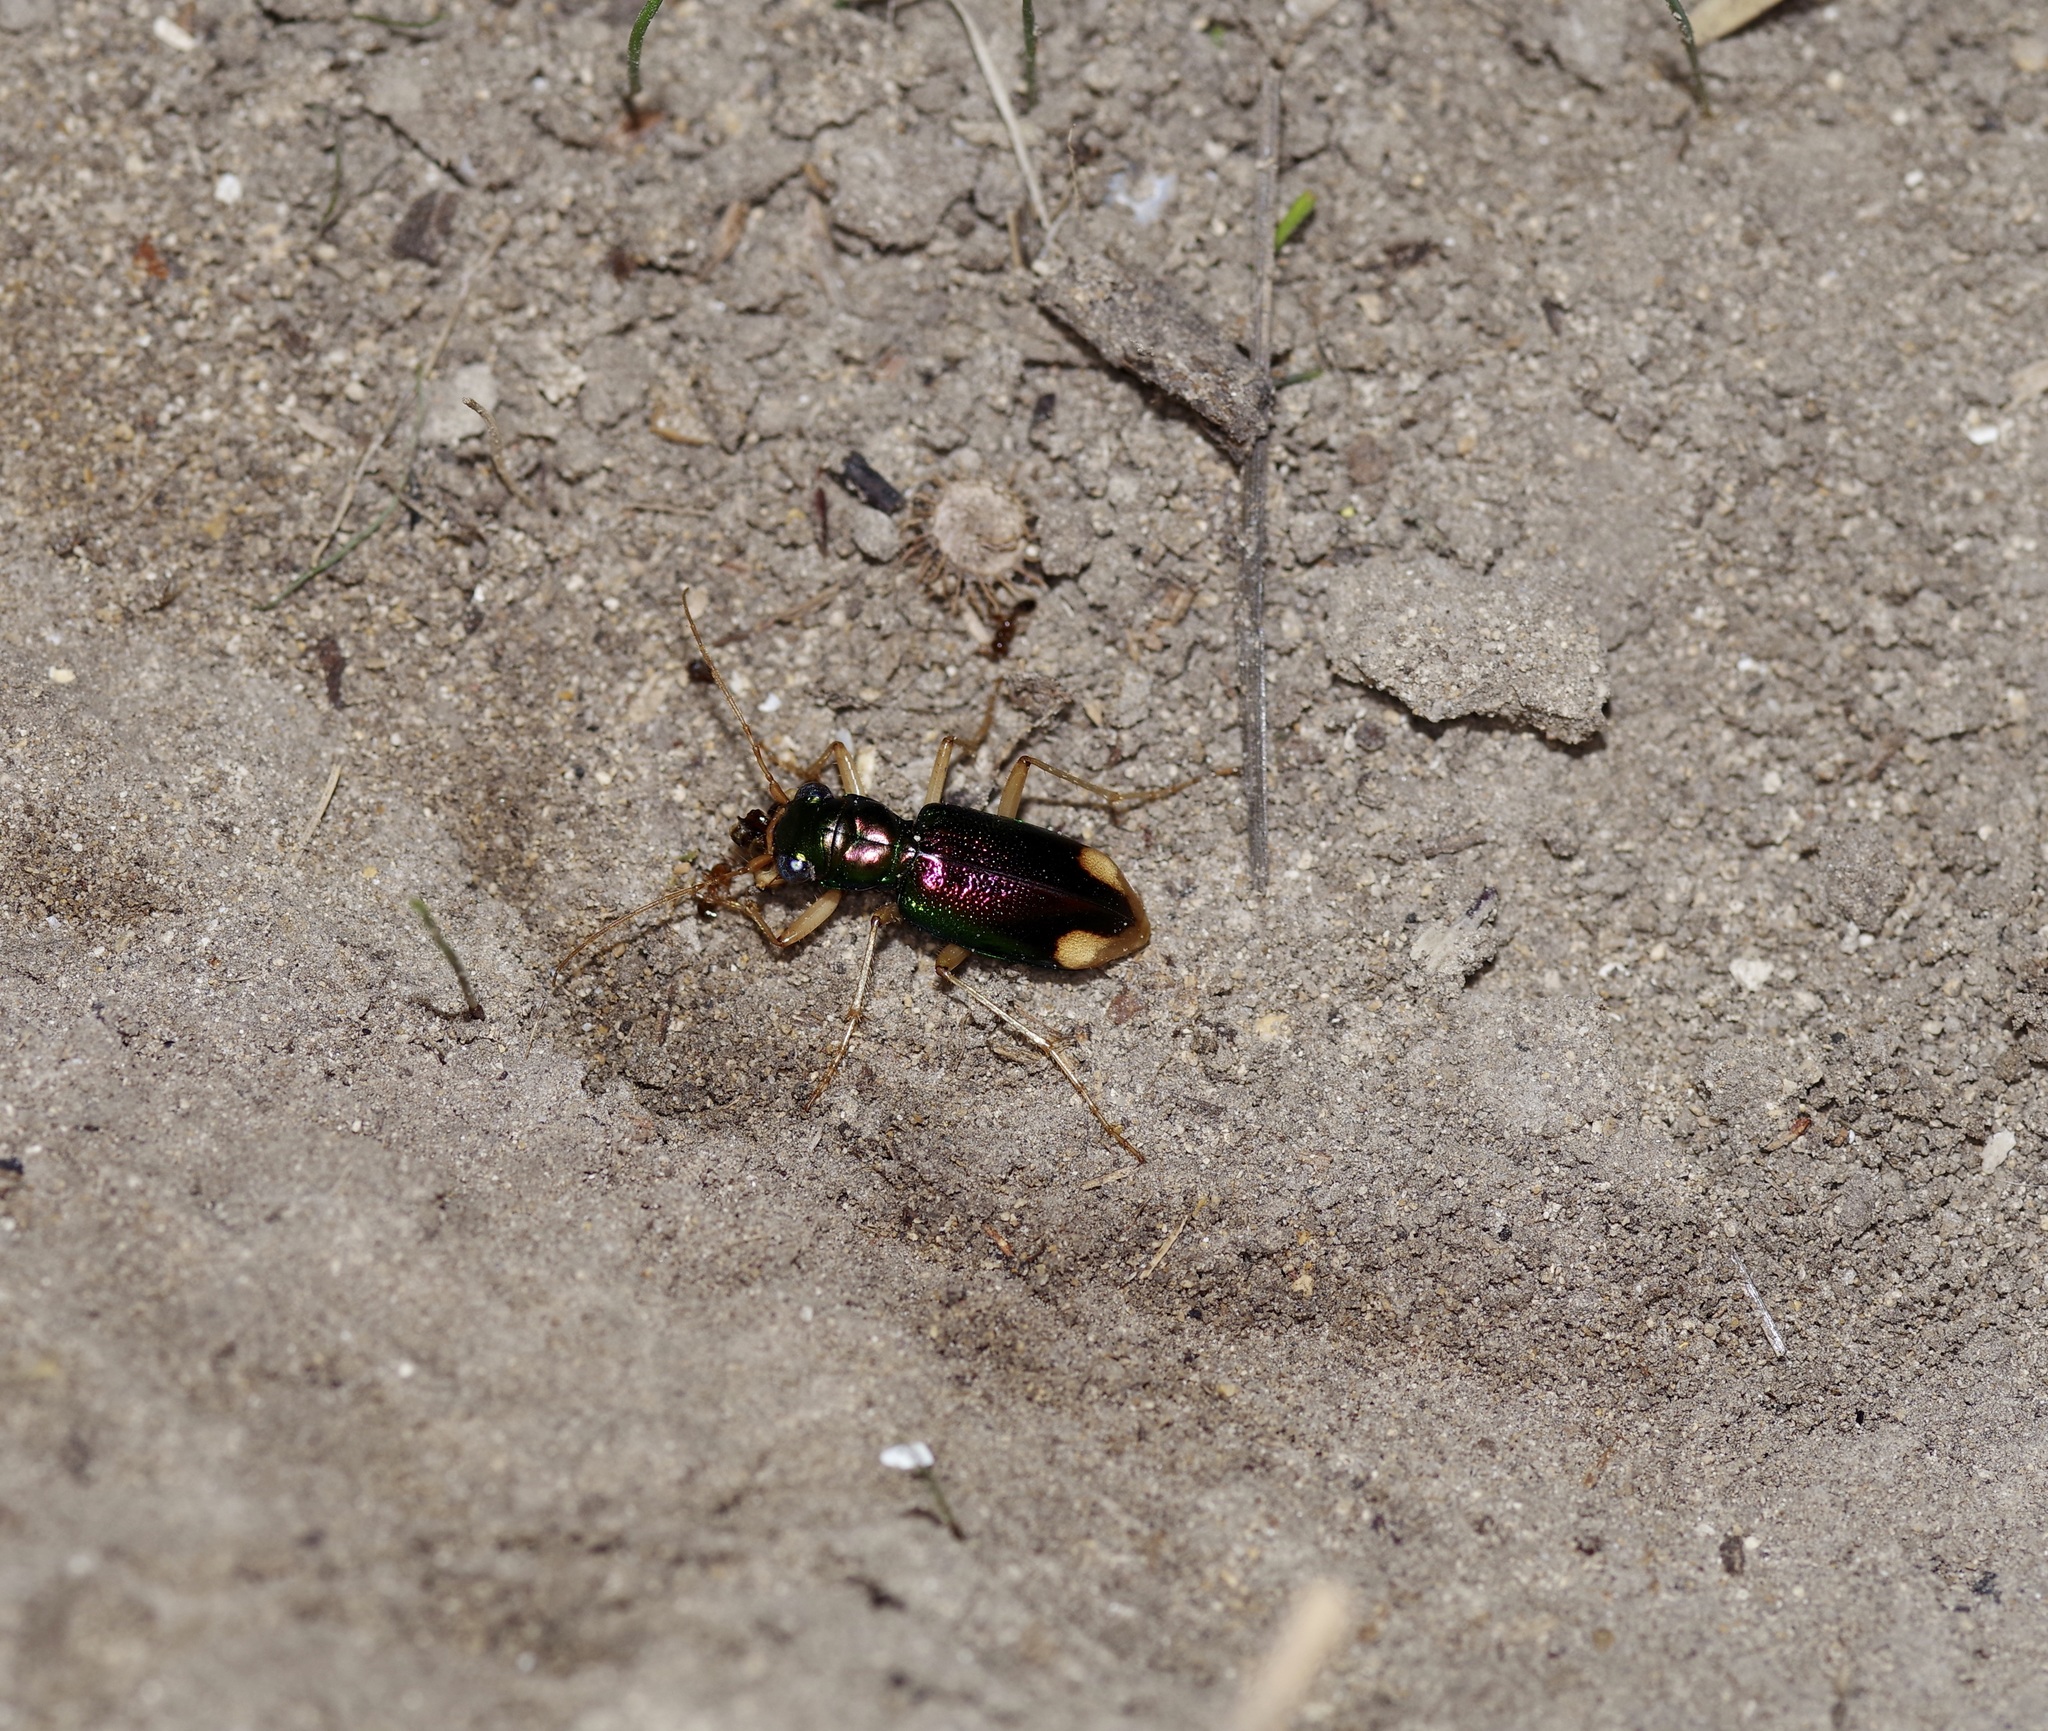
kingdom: Animalia
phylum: Arthropoda
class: Insecta
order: Coleoptera
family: Carabidae
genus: Tetracha
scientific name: Tetracha carolina
